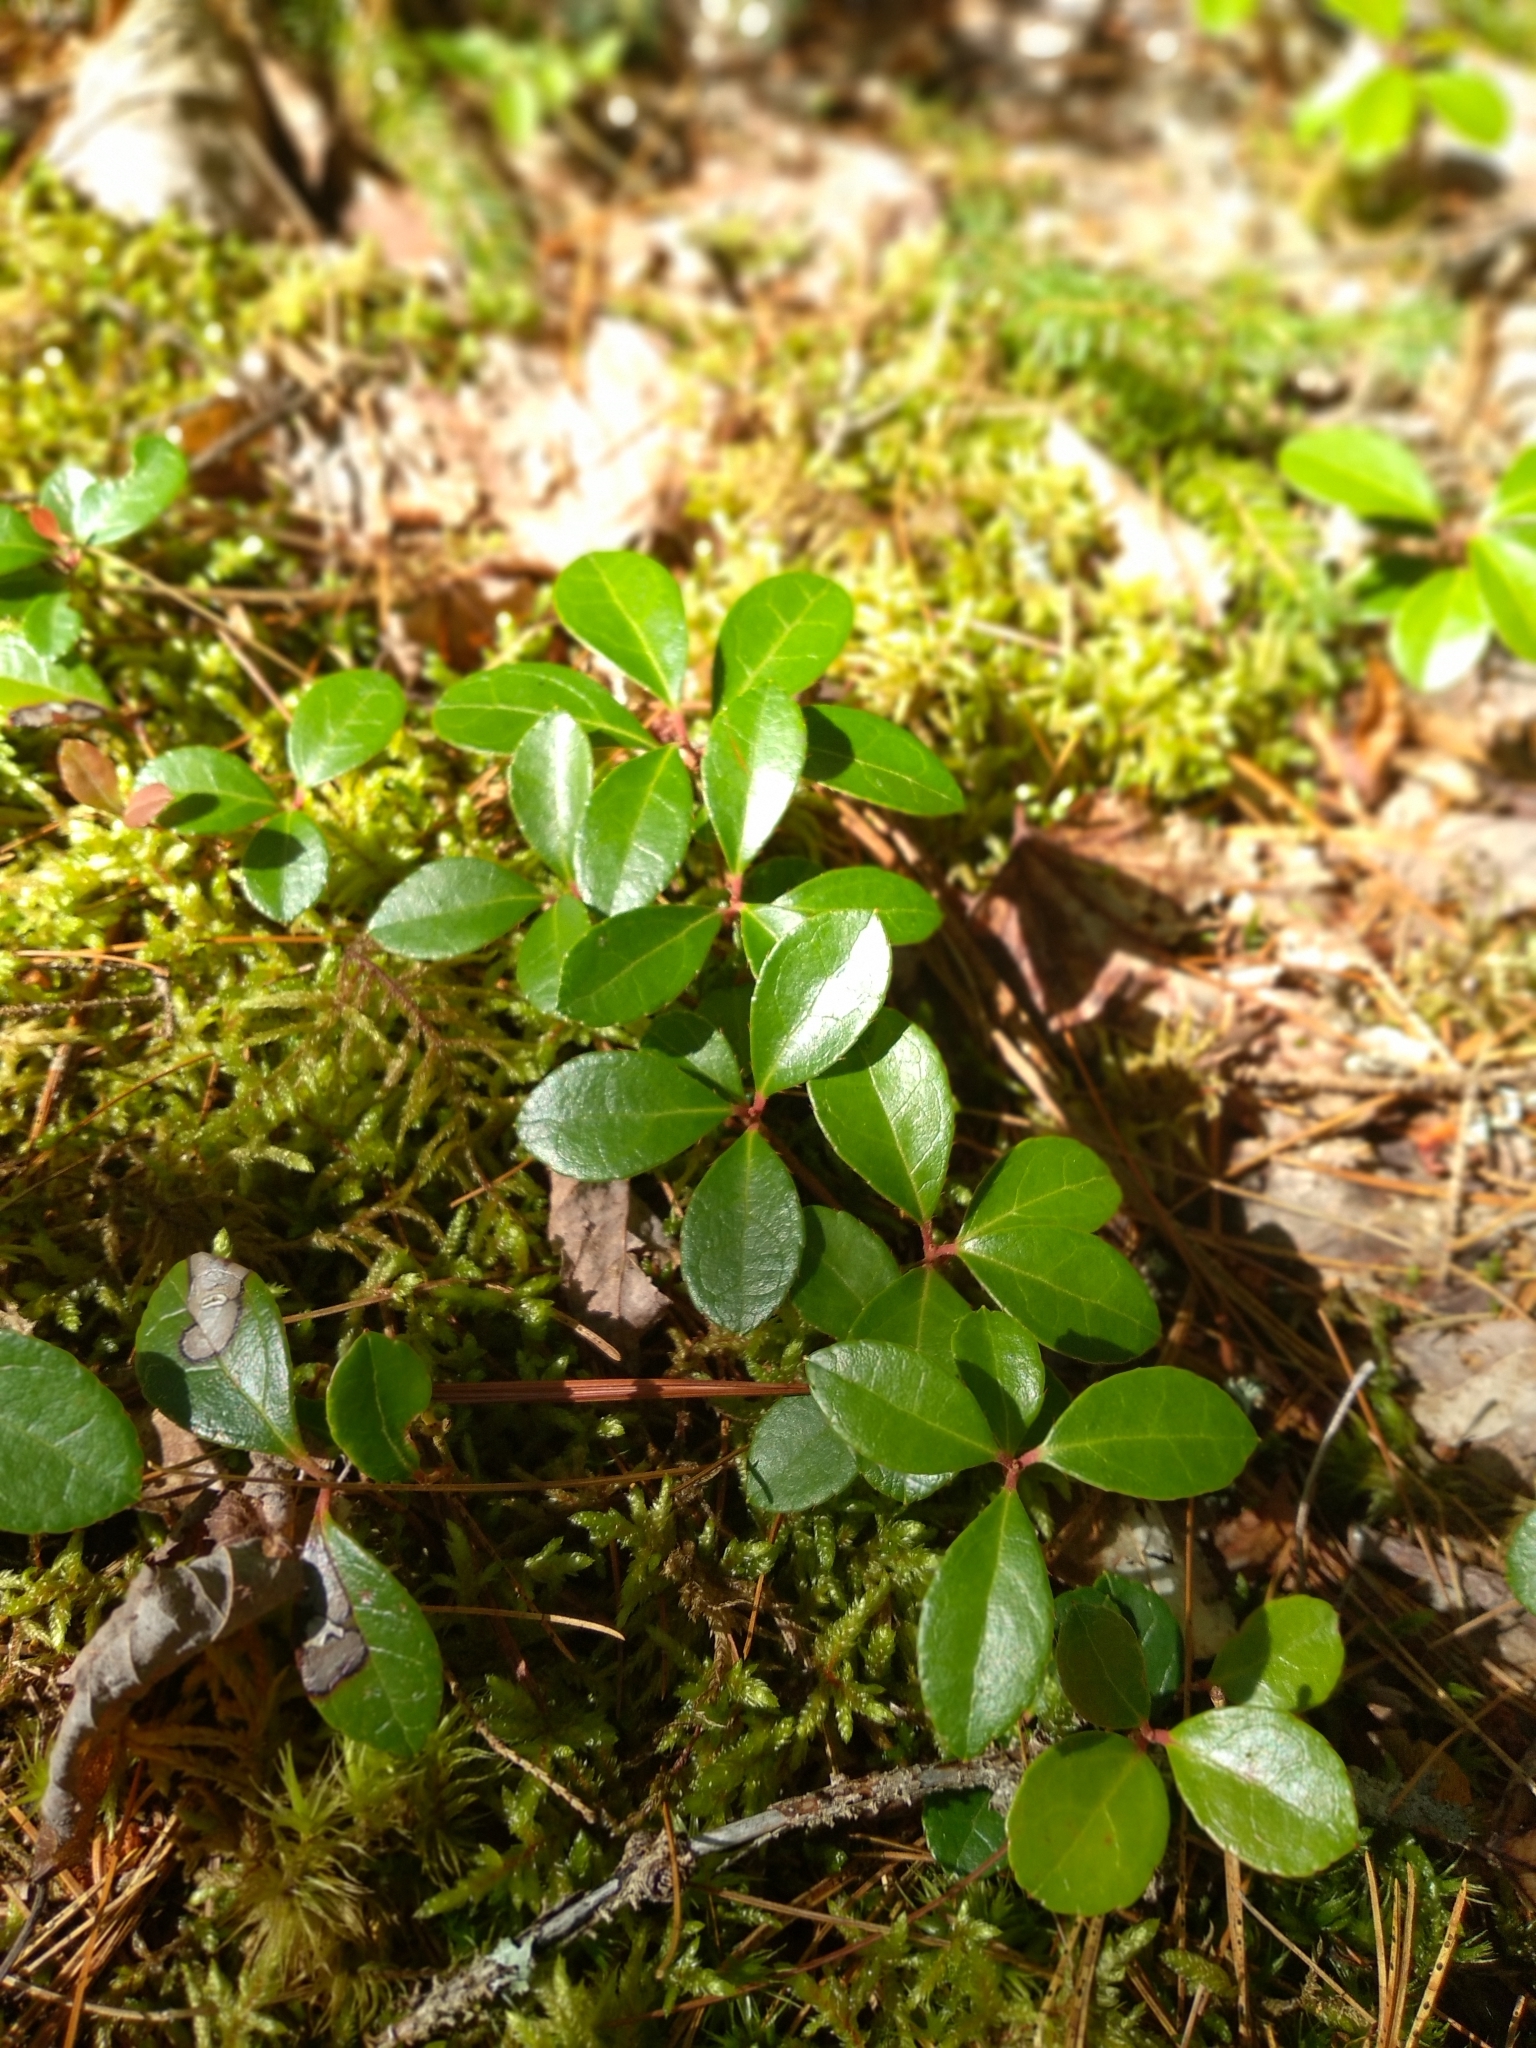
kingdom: Plantae
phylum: Tracheophyta
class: Magnoliopsida
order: Ericales
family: Ericaceae
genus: Gaultheria
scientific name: Gaultheria procumbens
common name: Checkerberry
